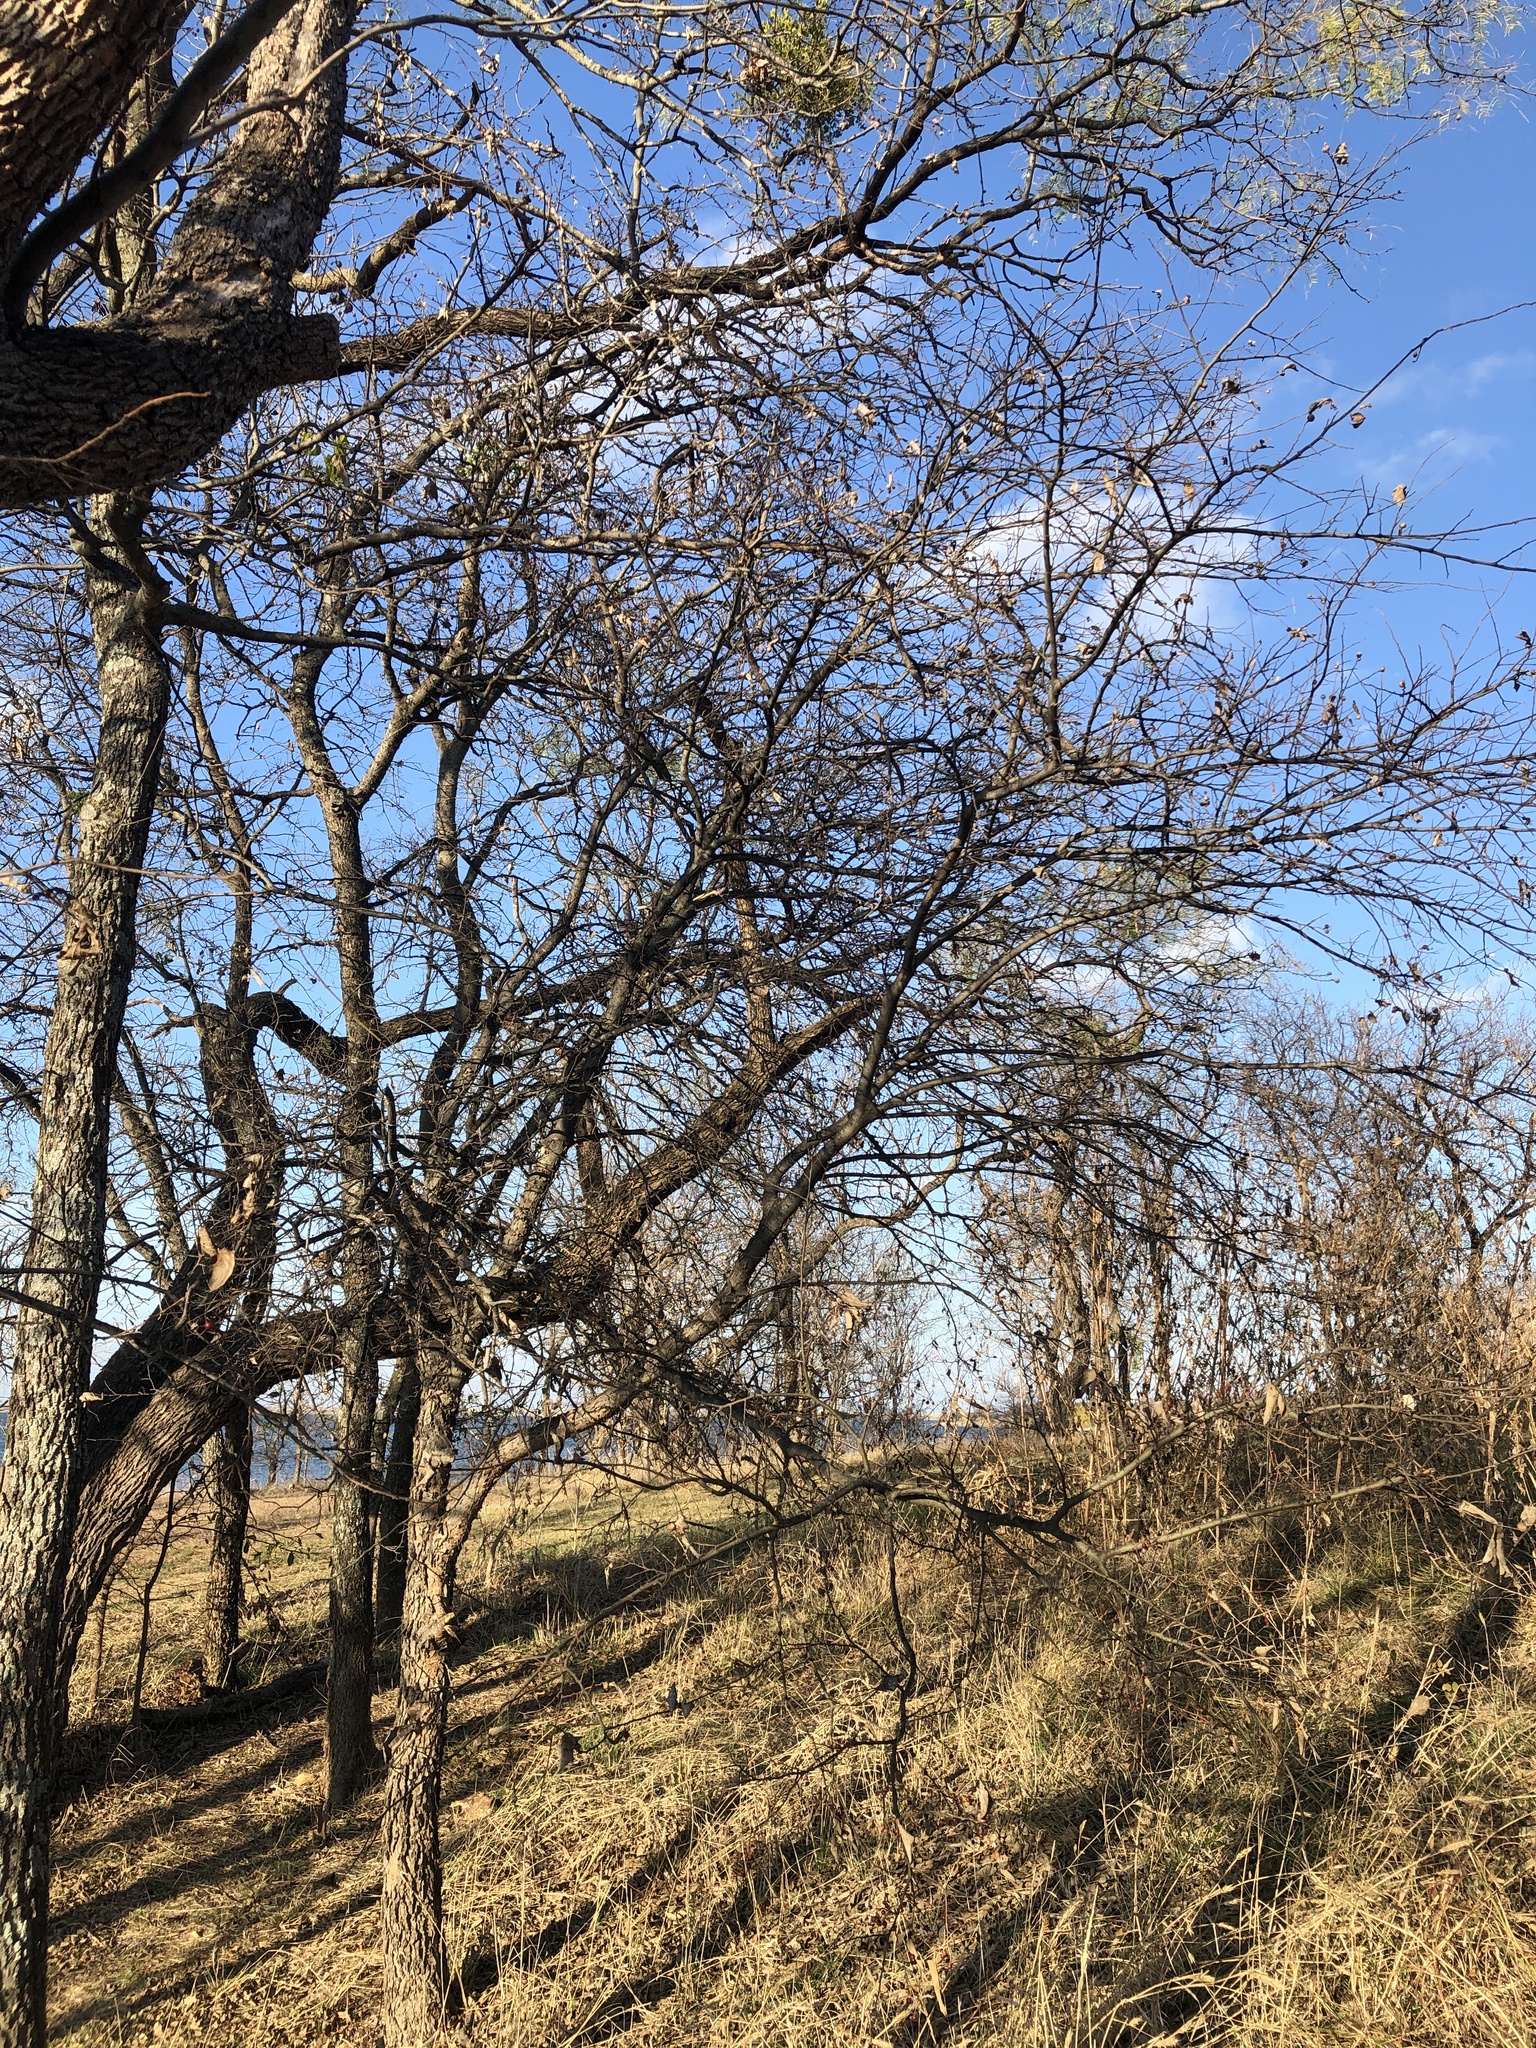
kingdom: Plantae
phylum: Tracheophyta
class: Magnoliopsida
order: Rosales
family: Cannabaceae
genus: Celtis
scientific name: Celtis laevigata
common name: Sugarberry
